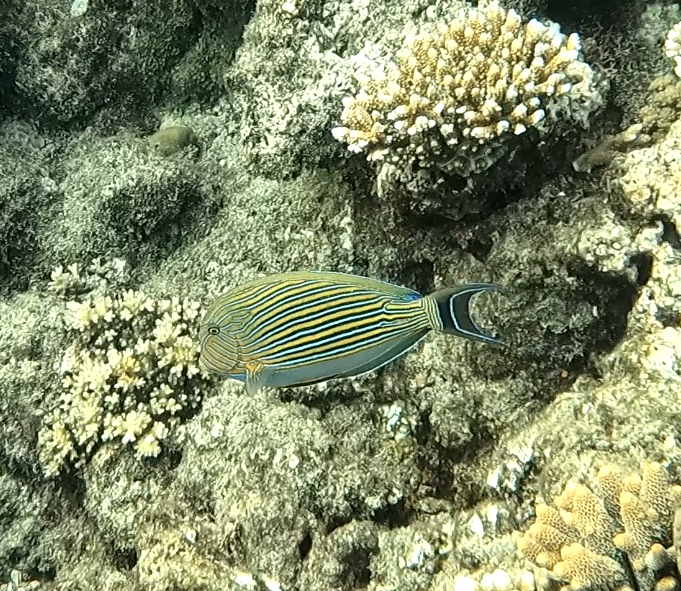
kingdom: Animalia
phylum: Chordata
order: Perciformes
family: Acanthuridae
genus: Acanthurus
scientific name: Acanthurus lineatus
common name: Striped surgeonfish
